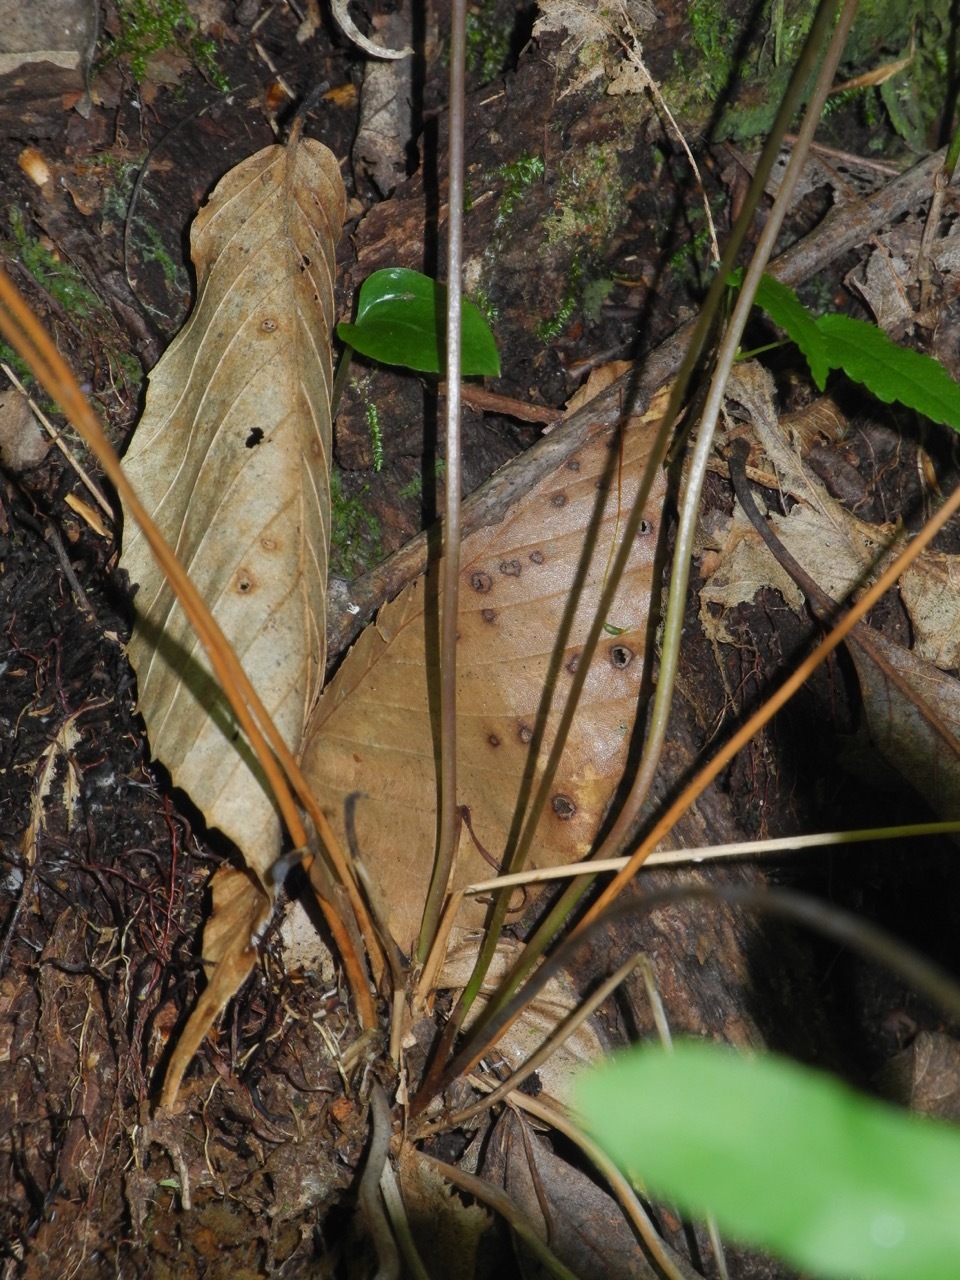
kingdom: Plantae
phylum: Tracheophyta
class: Polypodiopsida
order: Osmundales
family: Osmundaceae
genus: Osmunda
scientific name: Osmunda spectabilis
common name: American royal fern
